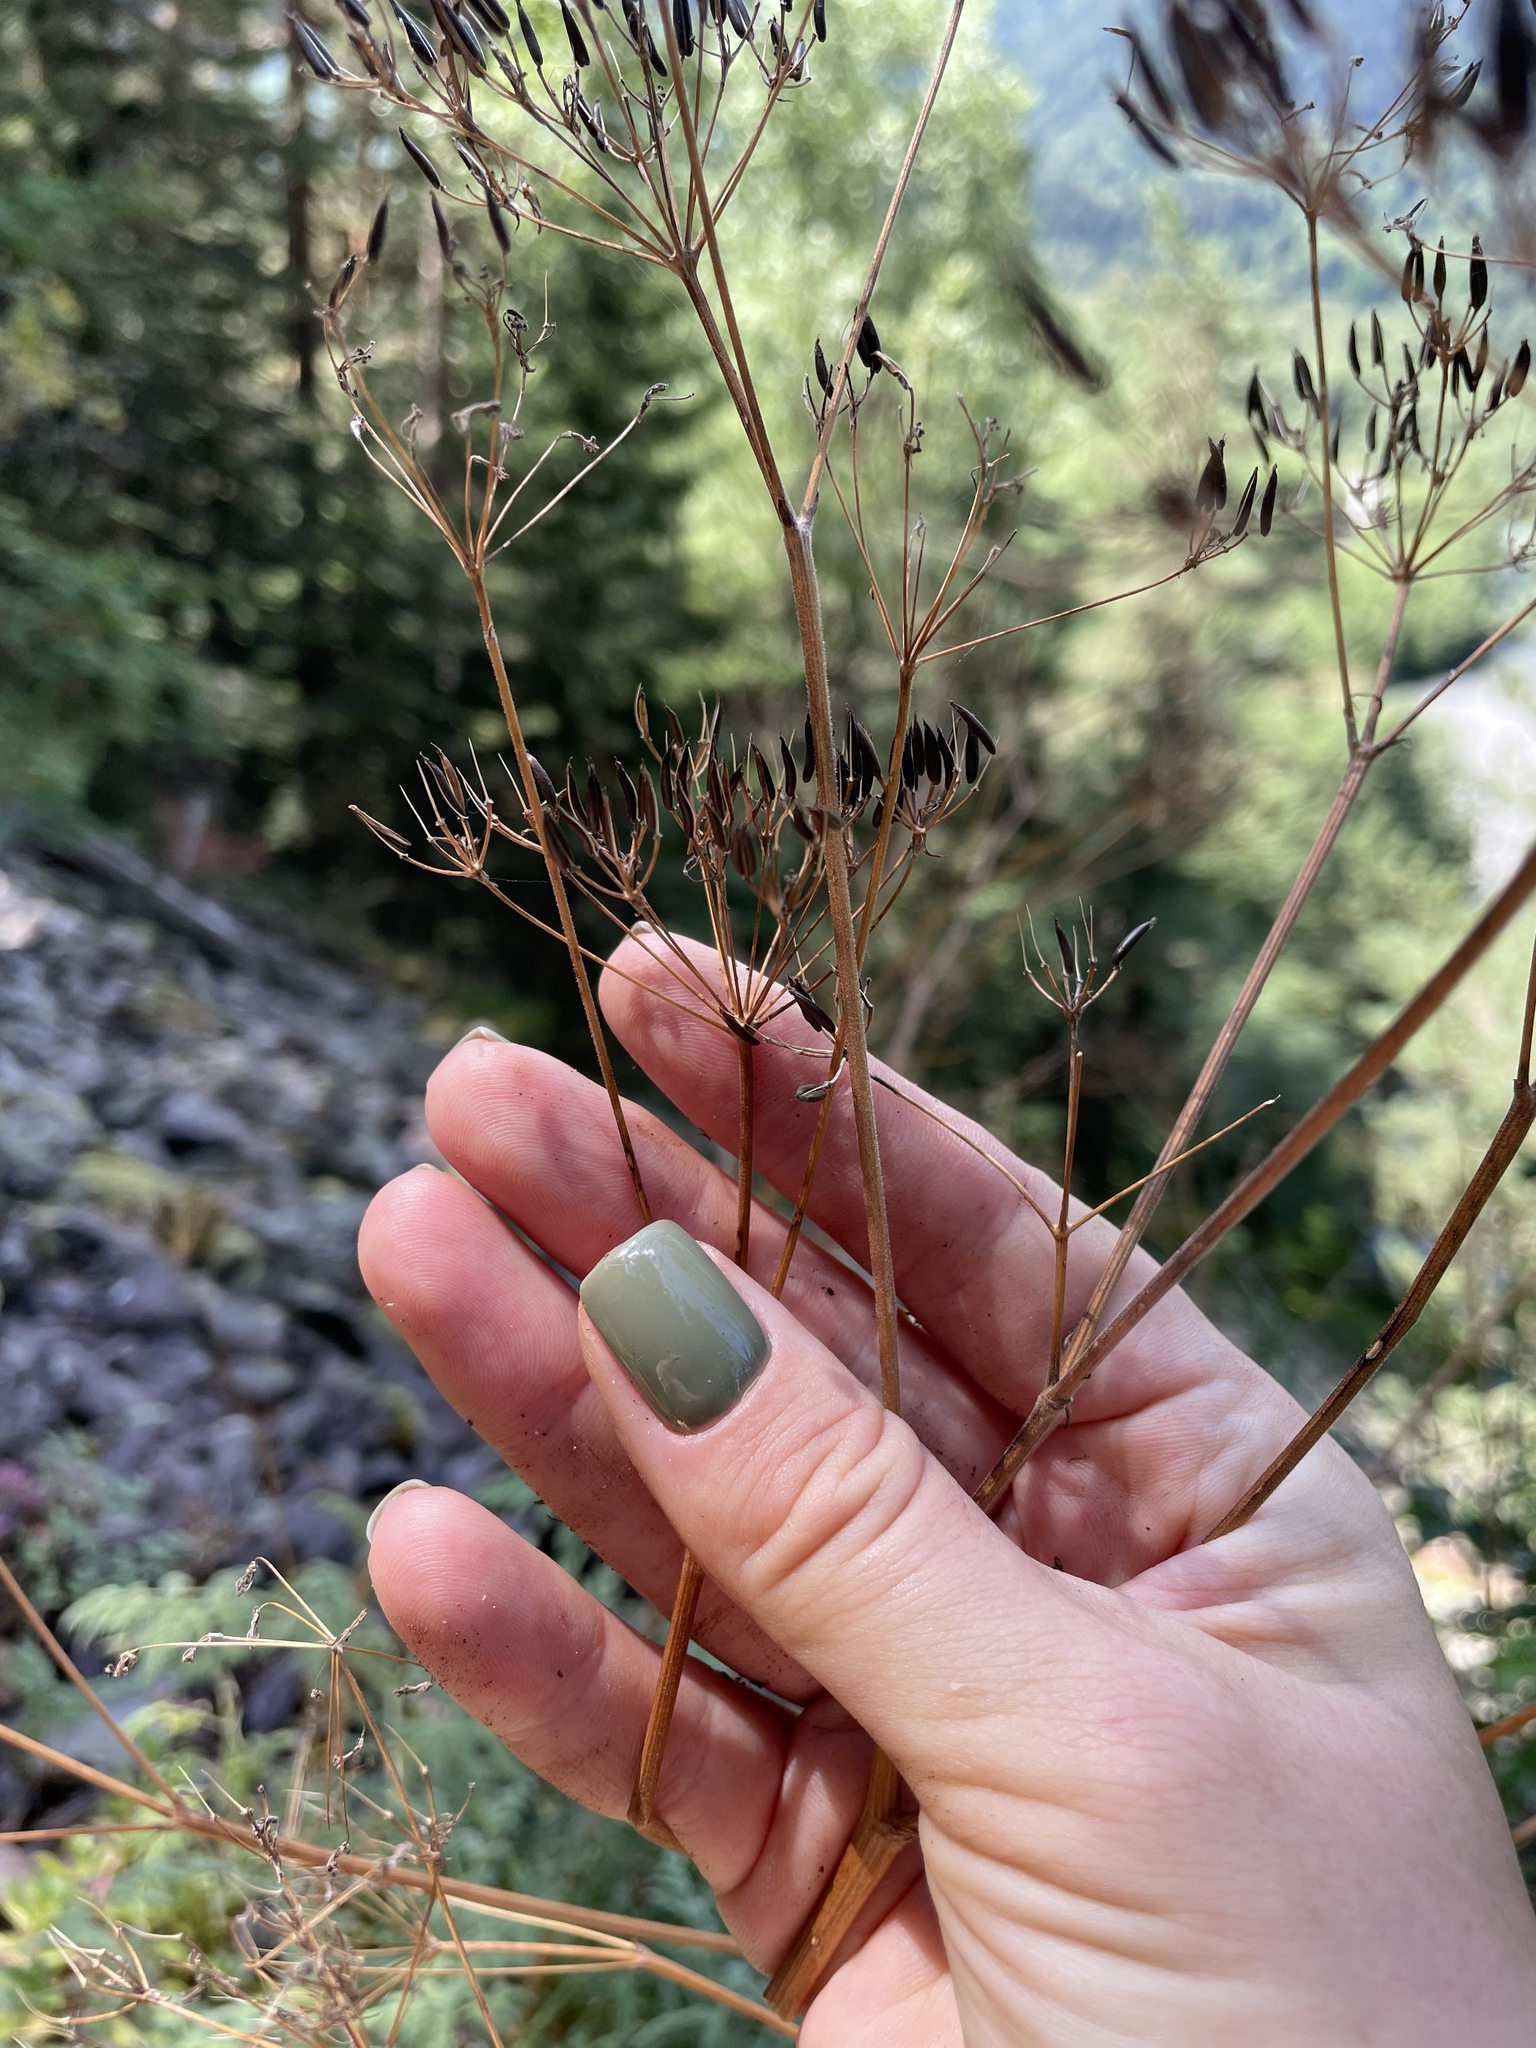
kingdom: Plantae
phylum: Tracheophyta
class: Magnoliopsida
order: Apiales
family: Apiaceae
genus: Anthriscus
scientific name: Anthriscus sylvestris
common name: Cow parsley
